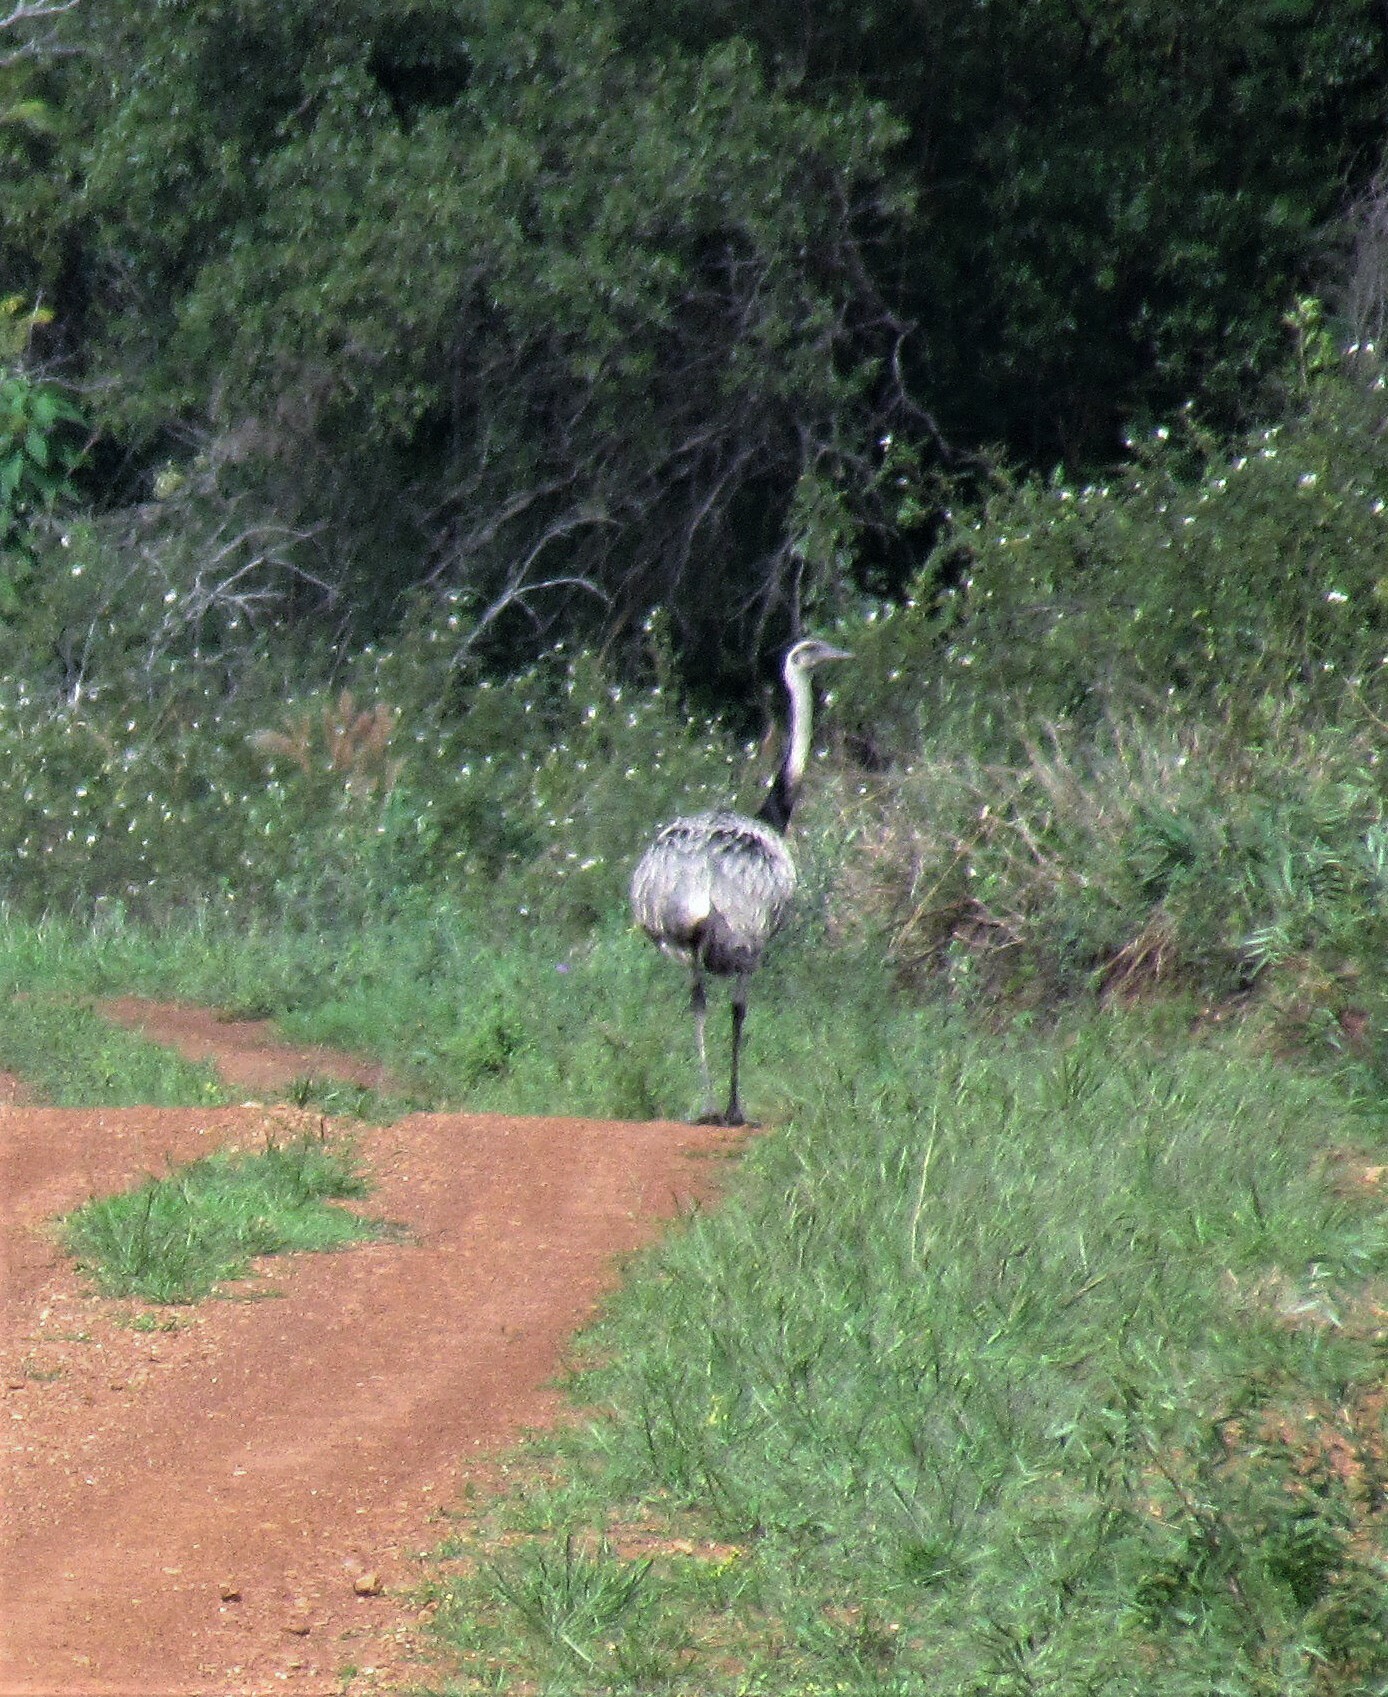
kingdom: Animalia
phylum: Chordata
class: Aves
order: Rheiformes
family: Rheidae
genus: Rhea
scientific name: Rhea americana
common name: Greater rhea
